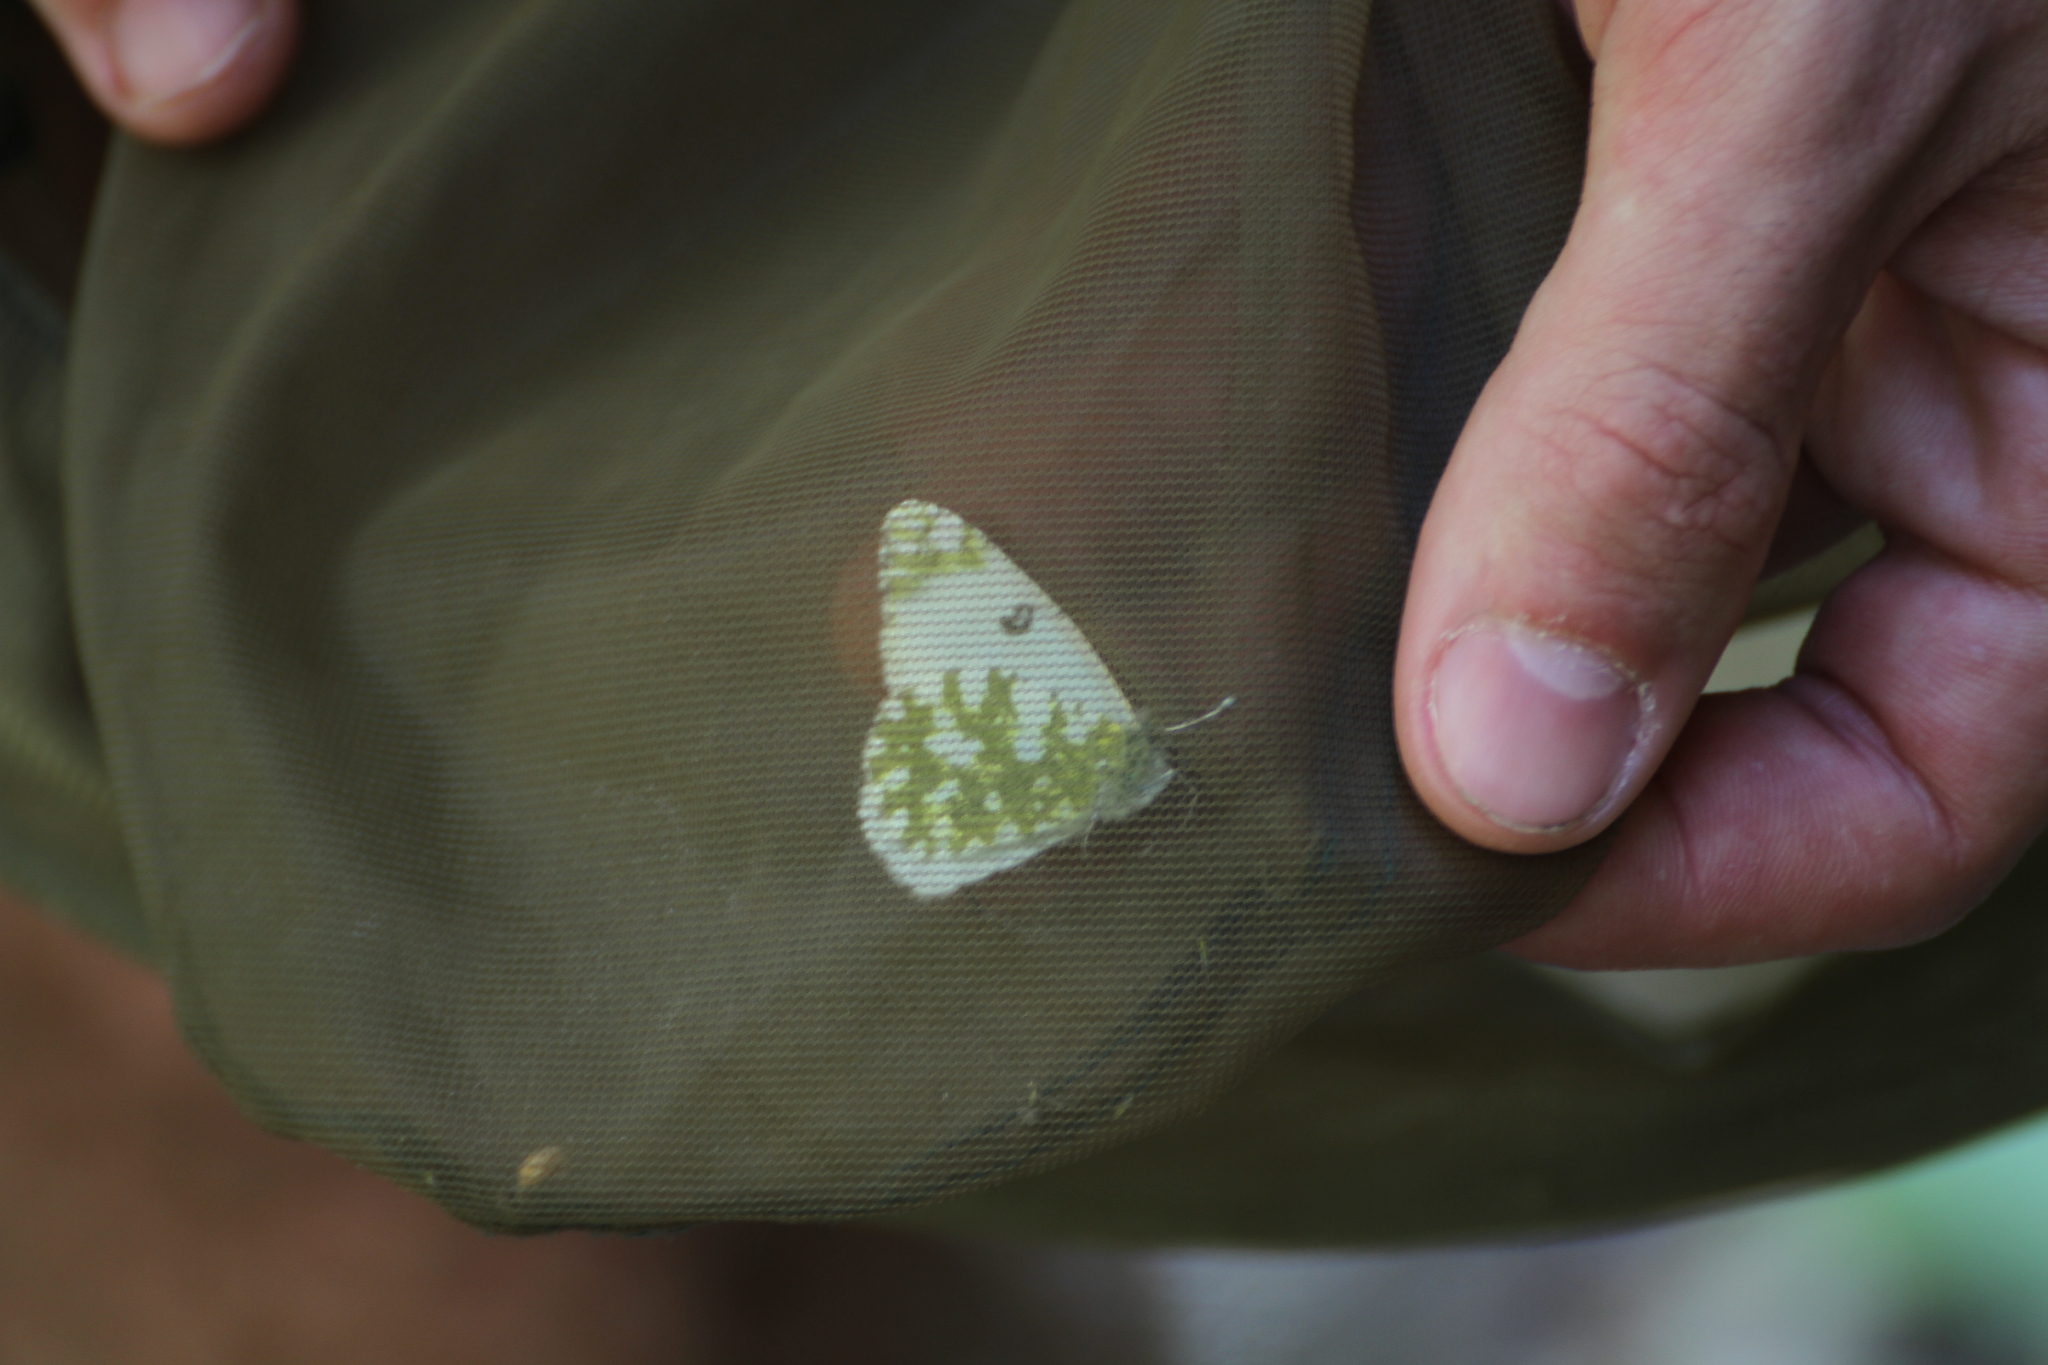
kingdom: Animalia
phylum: Arthropoda
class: Insecta
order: Lepidoptera
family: Pieridae
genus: Euchloe
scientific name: Euchloe crameri
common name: Western dappled white
